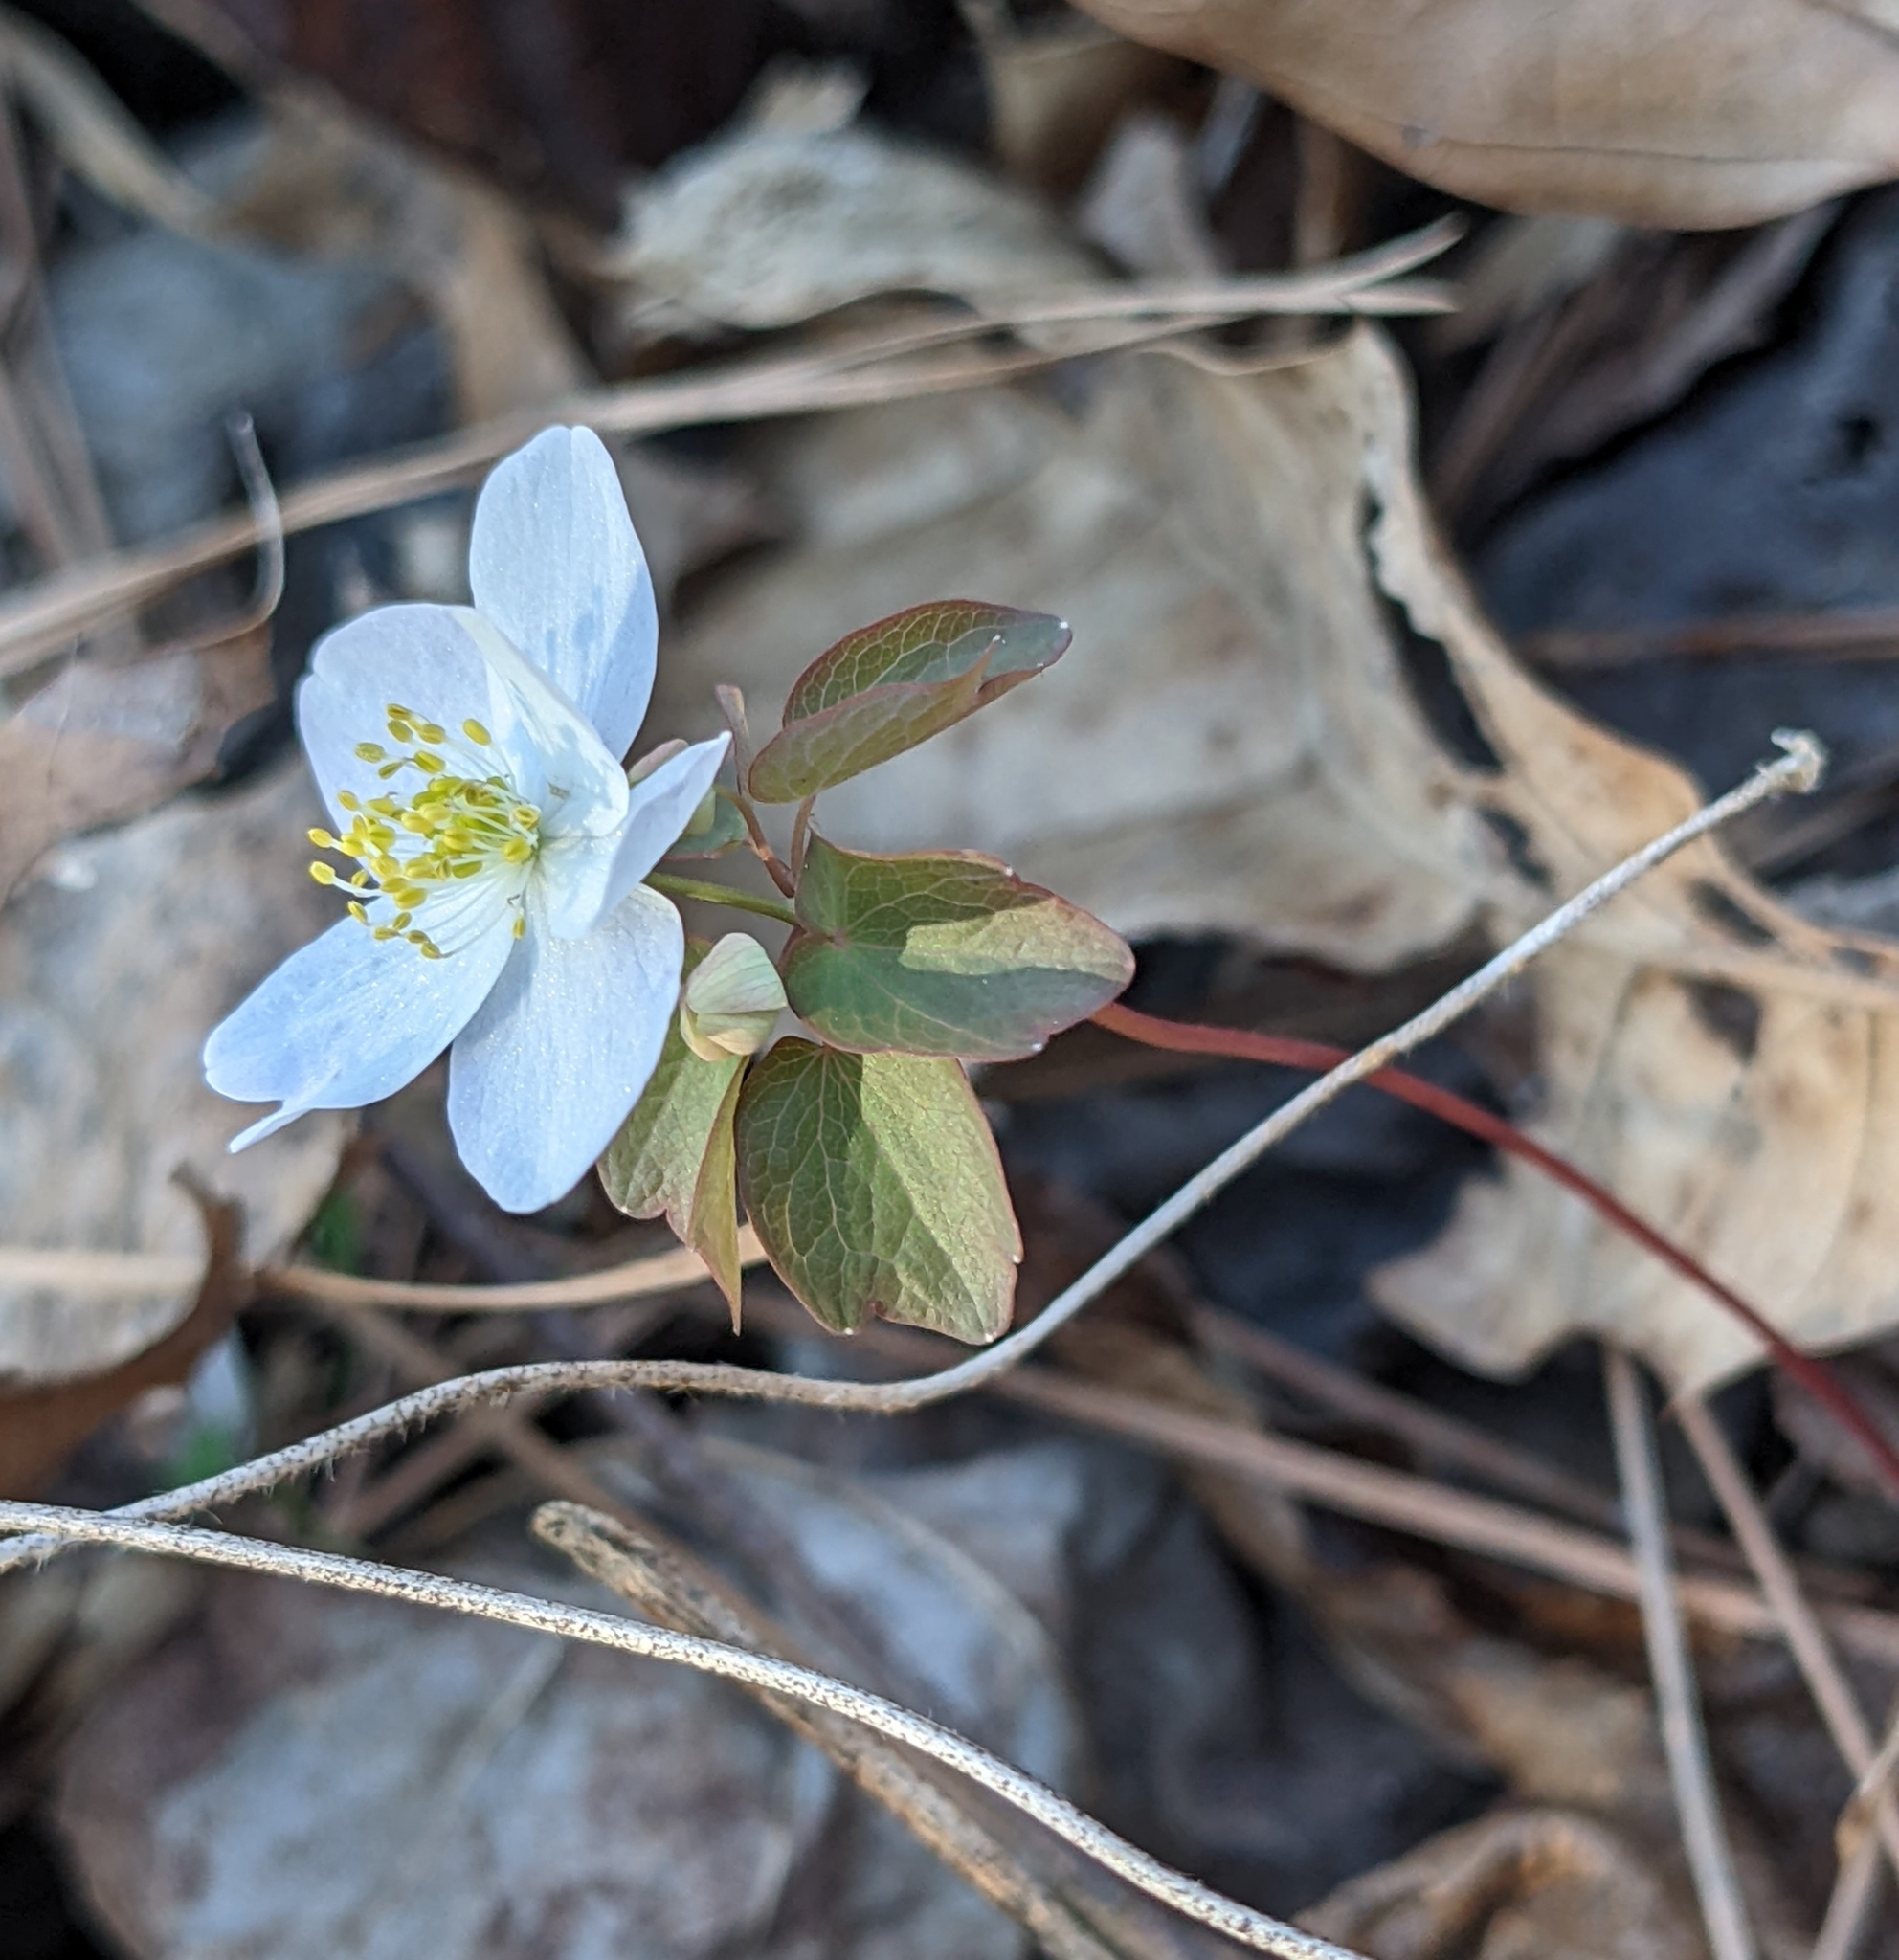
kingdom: Plantae
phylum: Tracheophyta
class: Magnoliopsida
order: Ranunculales
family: Ranunculaceae
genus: Thalictrum
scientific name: Thalictrum thalictroides
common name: Rue-anemone
